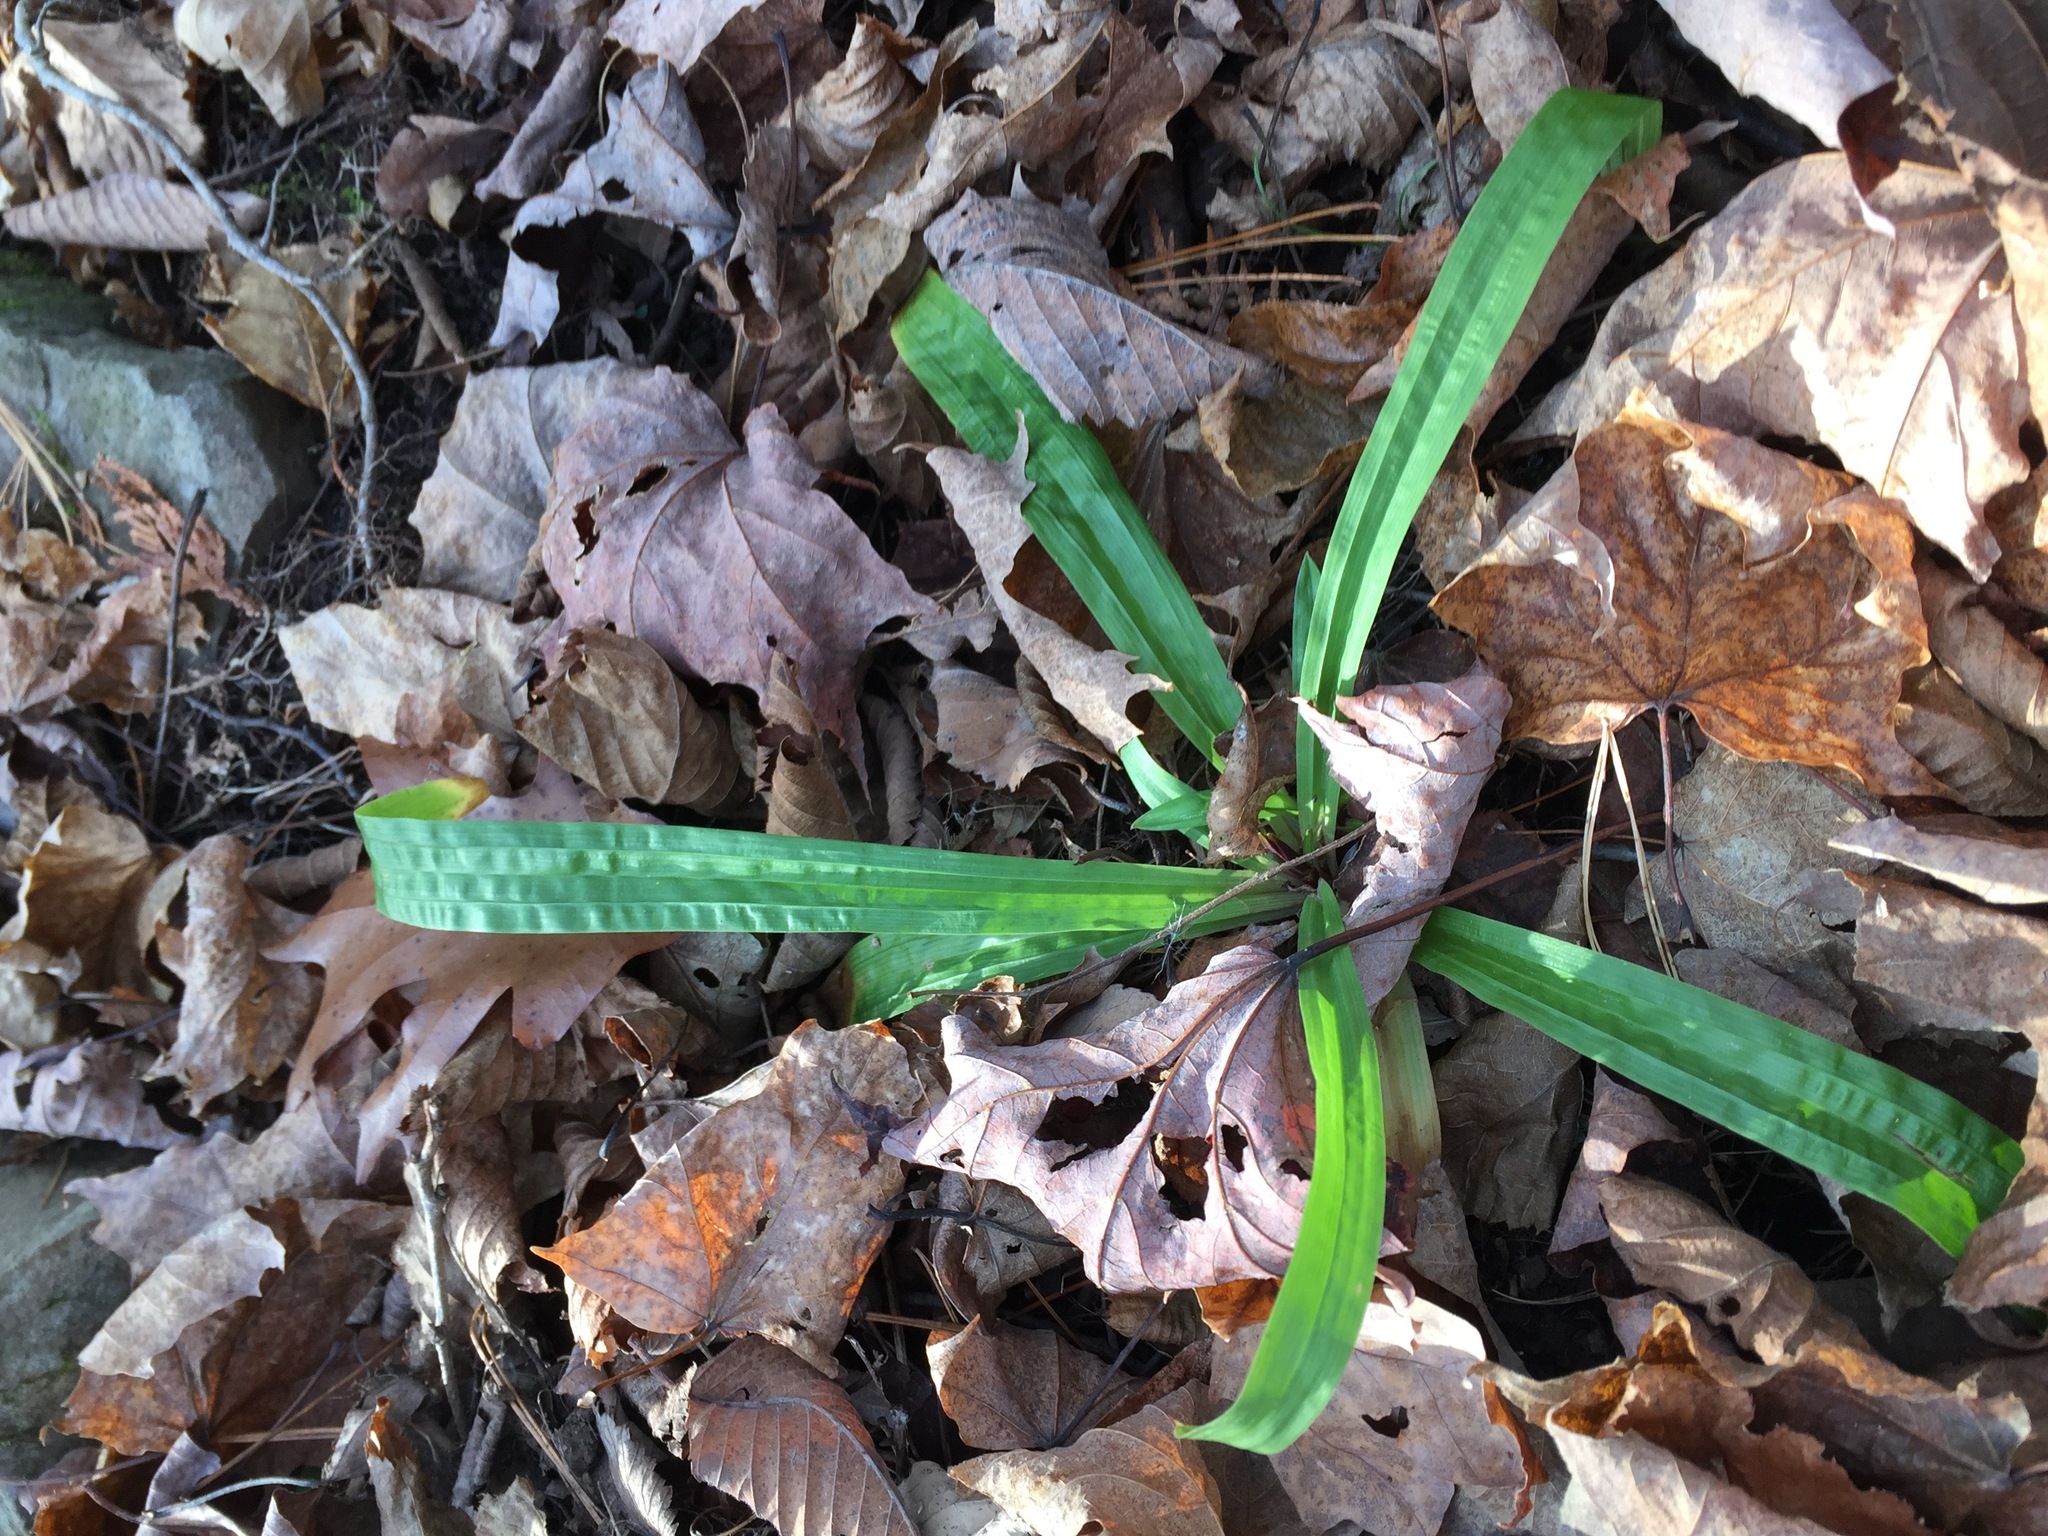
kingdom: Plantae
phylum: Tracheophyta
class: Liliopsida
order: Poales
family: Cyperaceae
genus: Carex
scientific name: Carex plantaginea
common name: Plantain-leaved sedge
